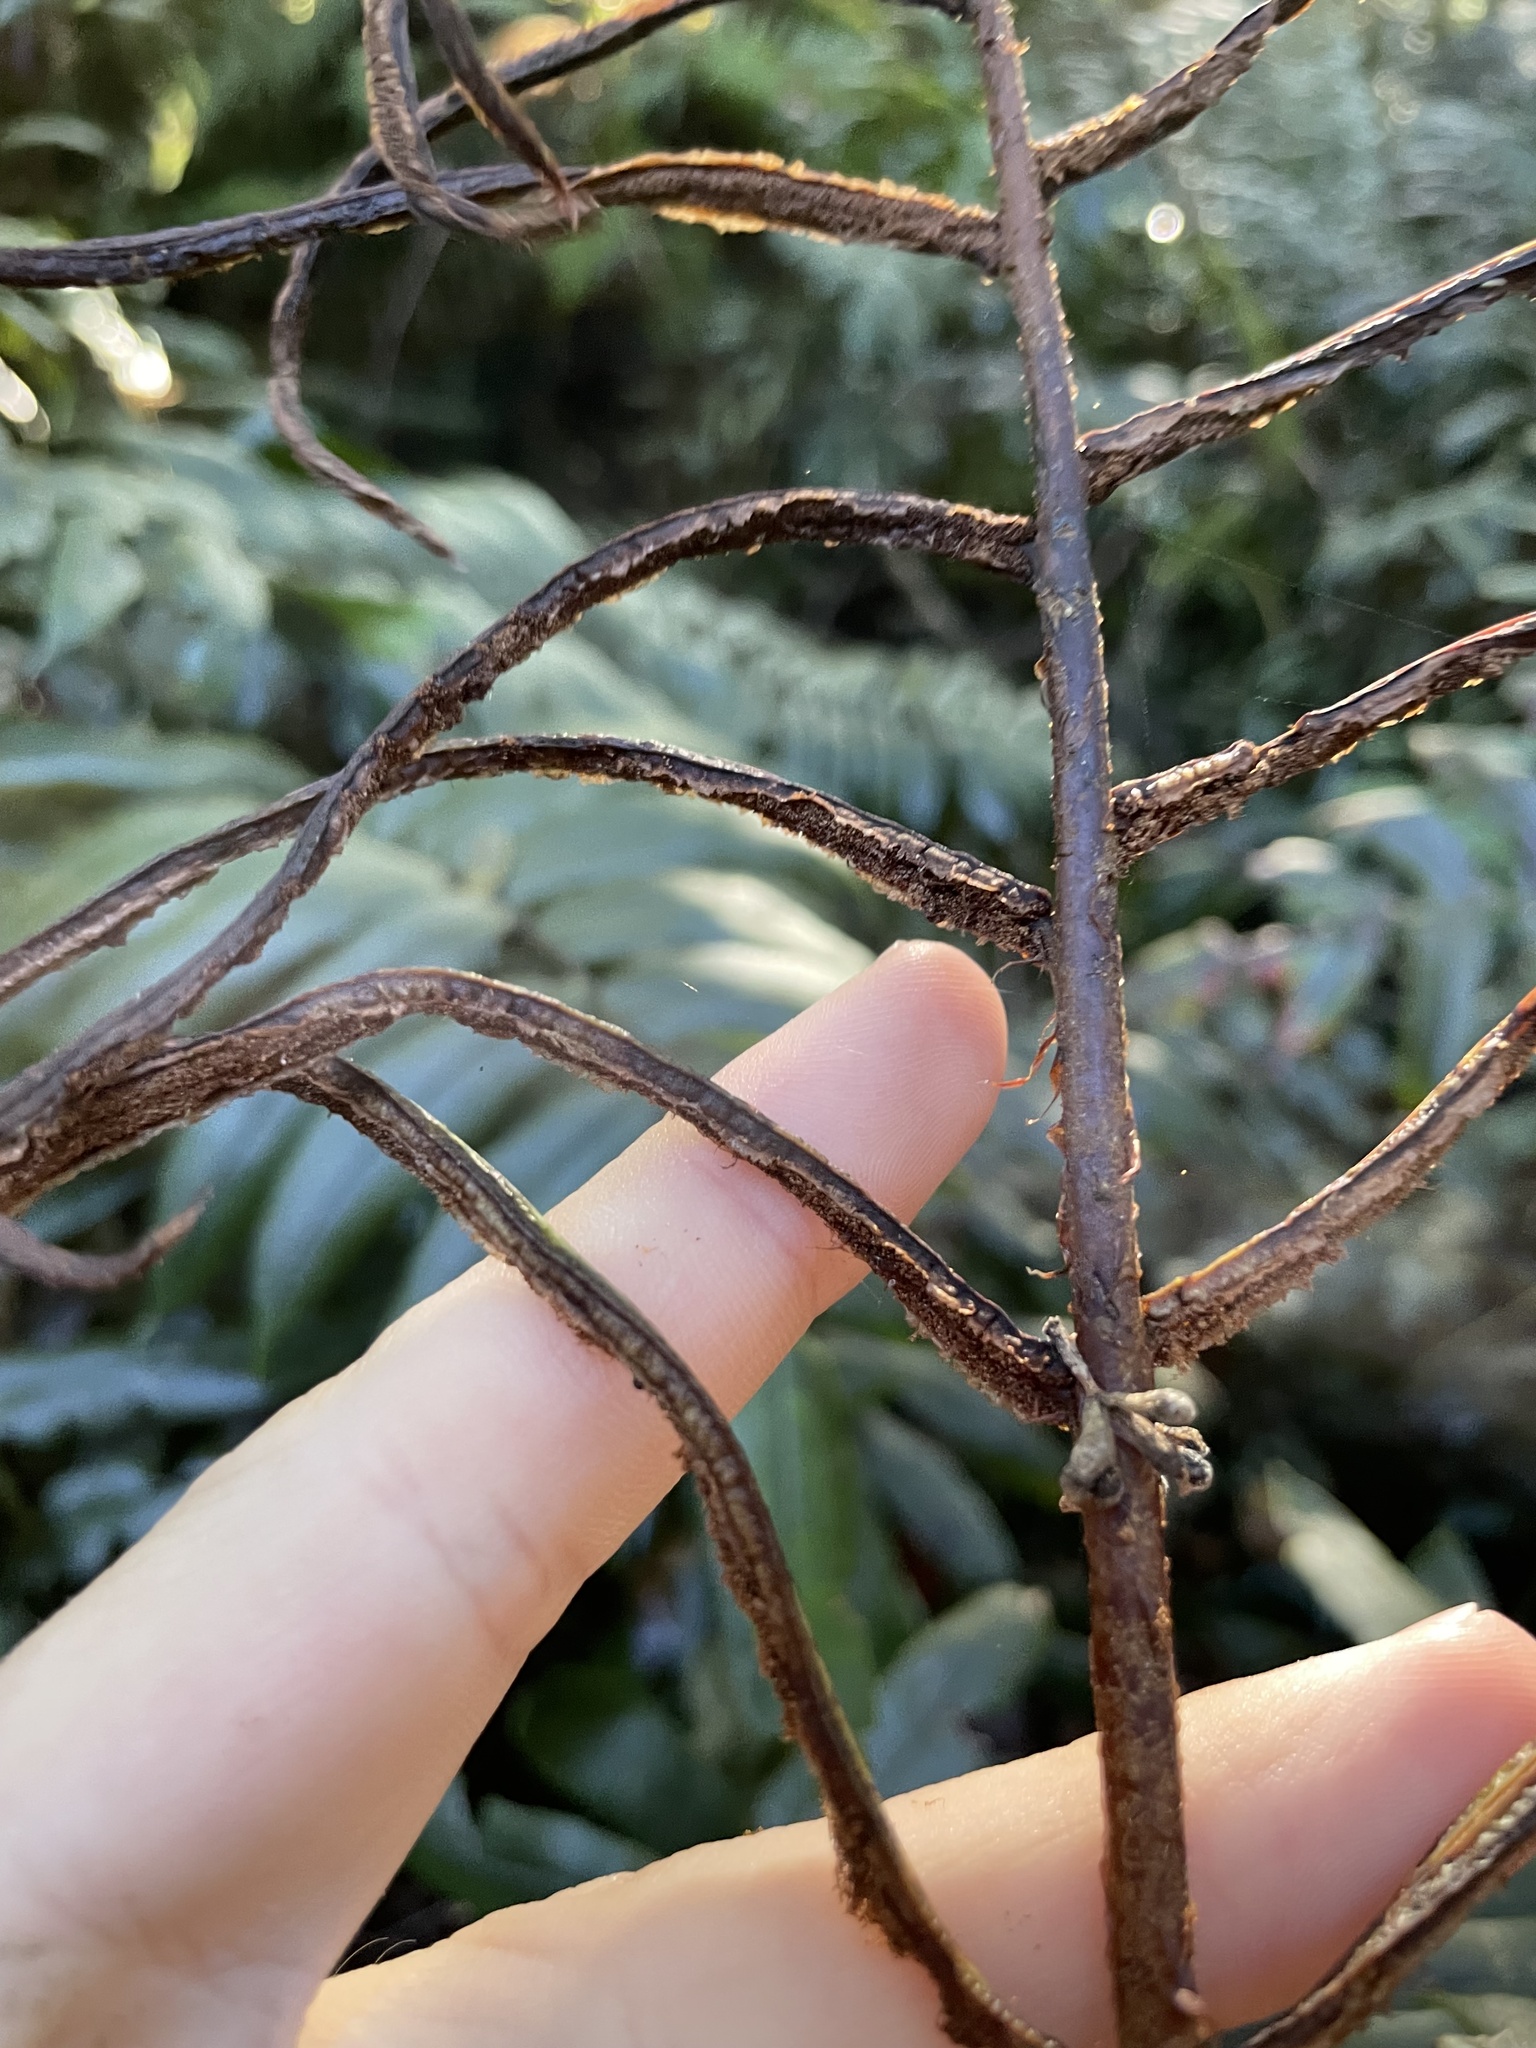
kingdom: Plantae
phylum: Tracheophyta
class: Polypodiopsida
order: Polypodiales
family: Blechnaceae
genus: Parablechnum
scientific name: Parablechnum wattsii
